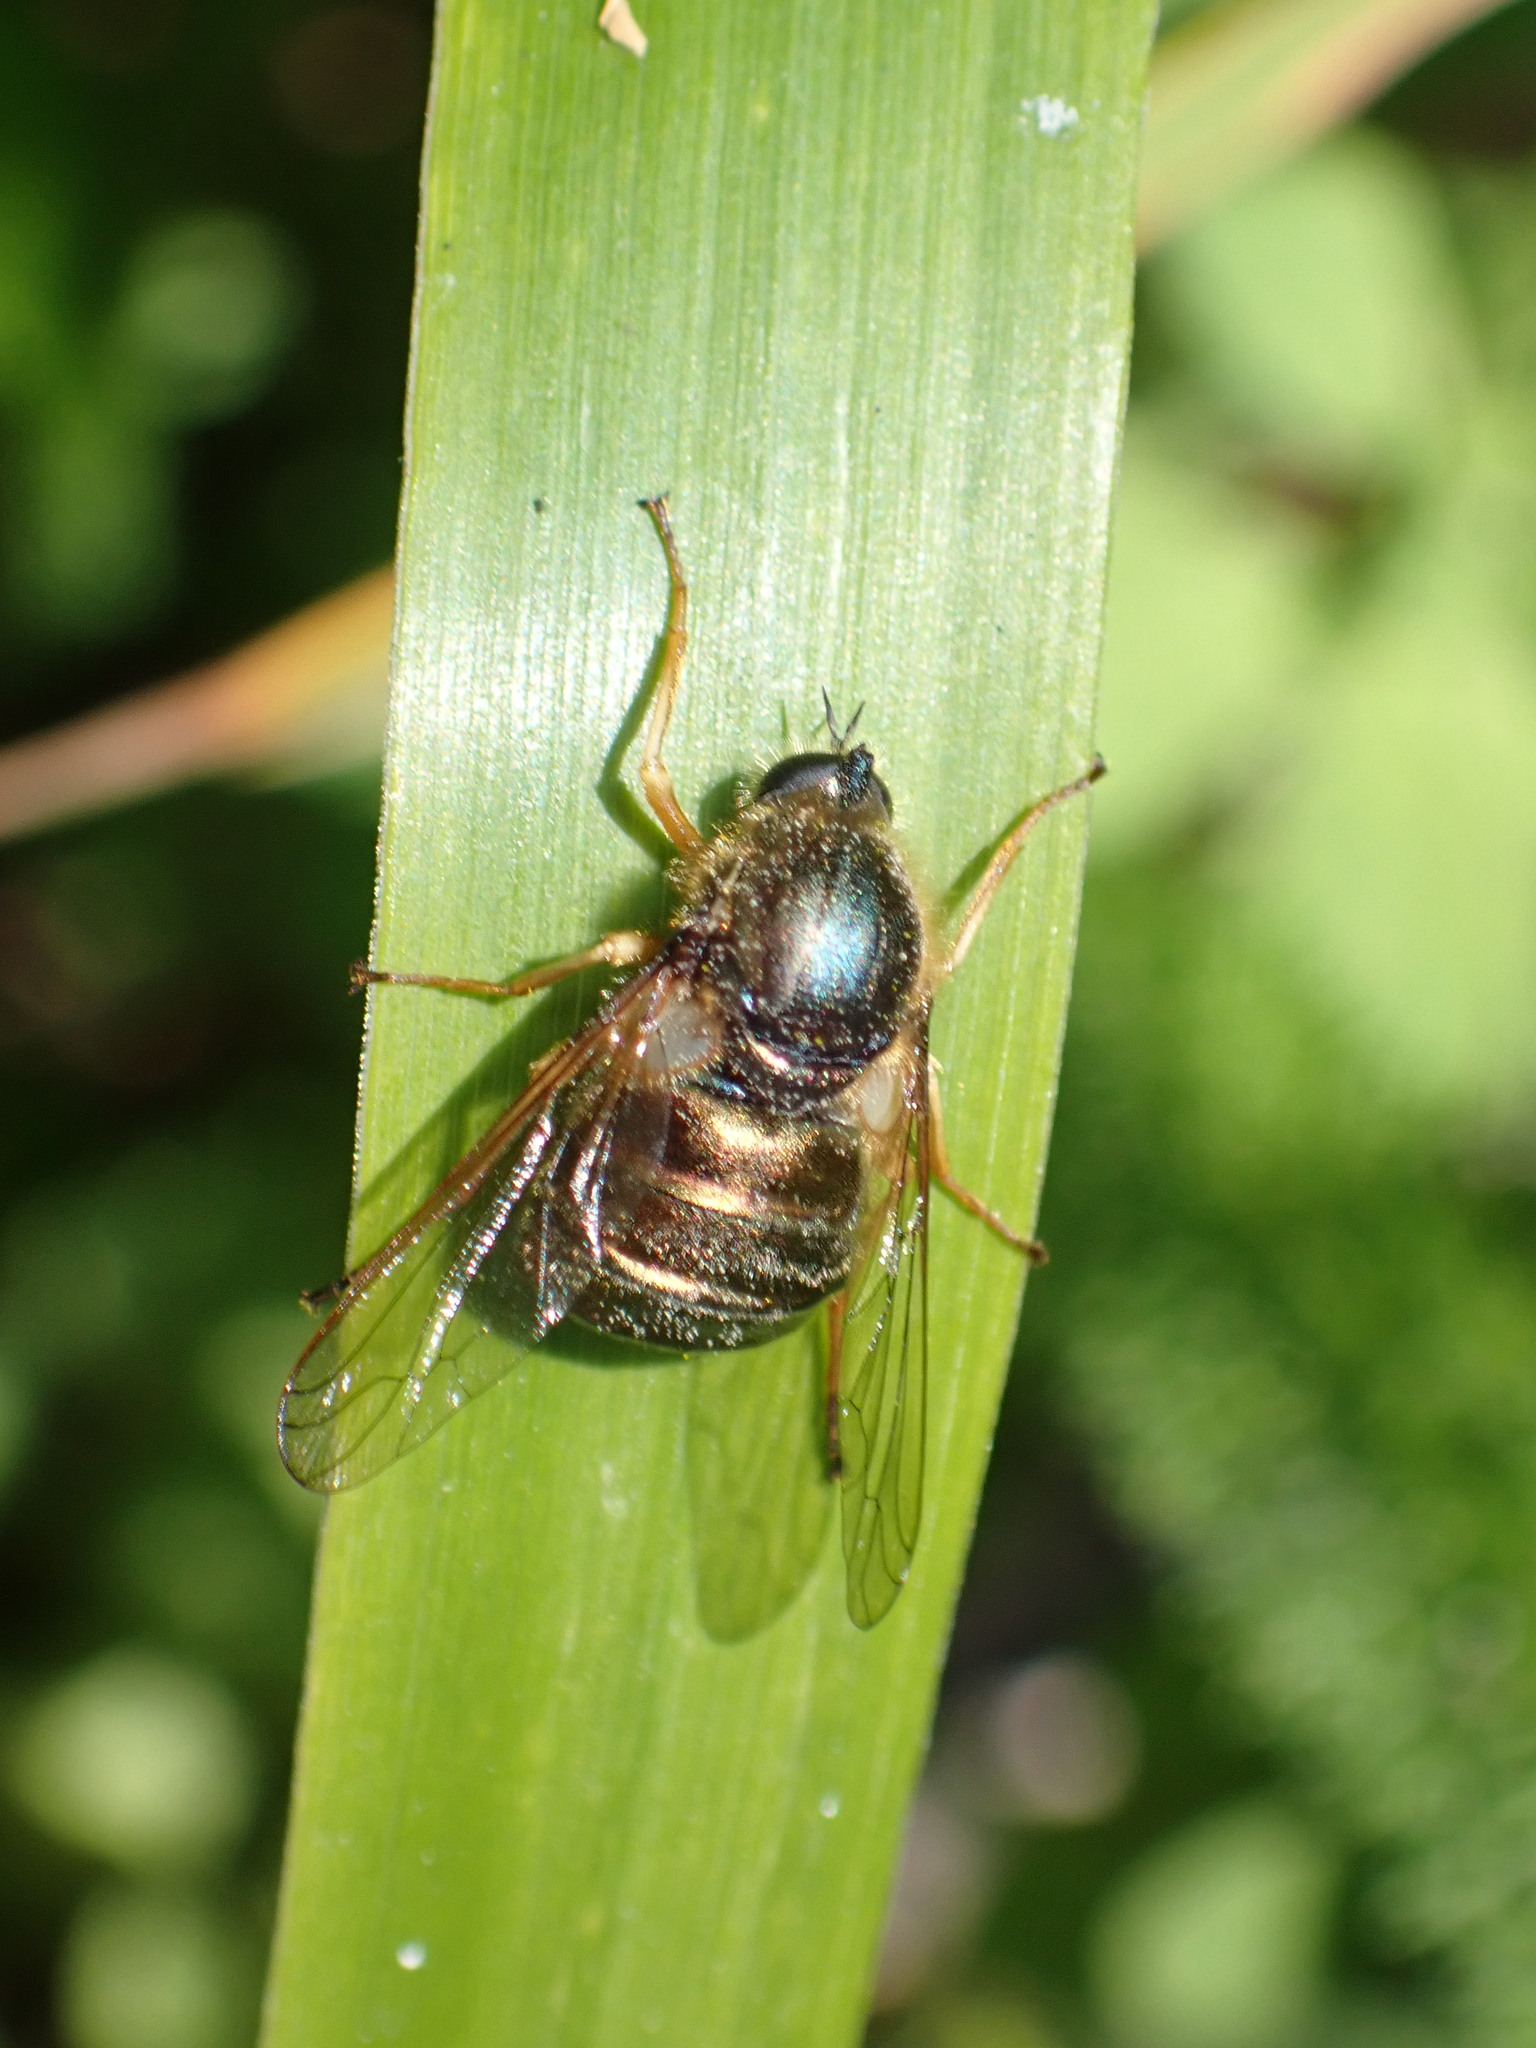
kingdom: Animalia
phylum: Arthropoda
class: Insecta
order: Diptera
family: Acroceridae
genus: Eulonchus
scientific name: Eulonchus tristis
